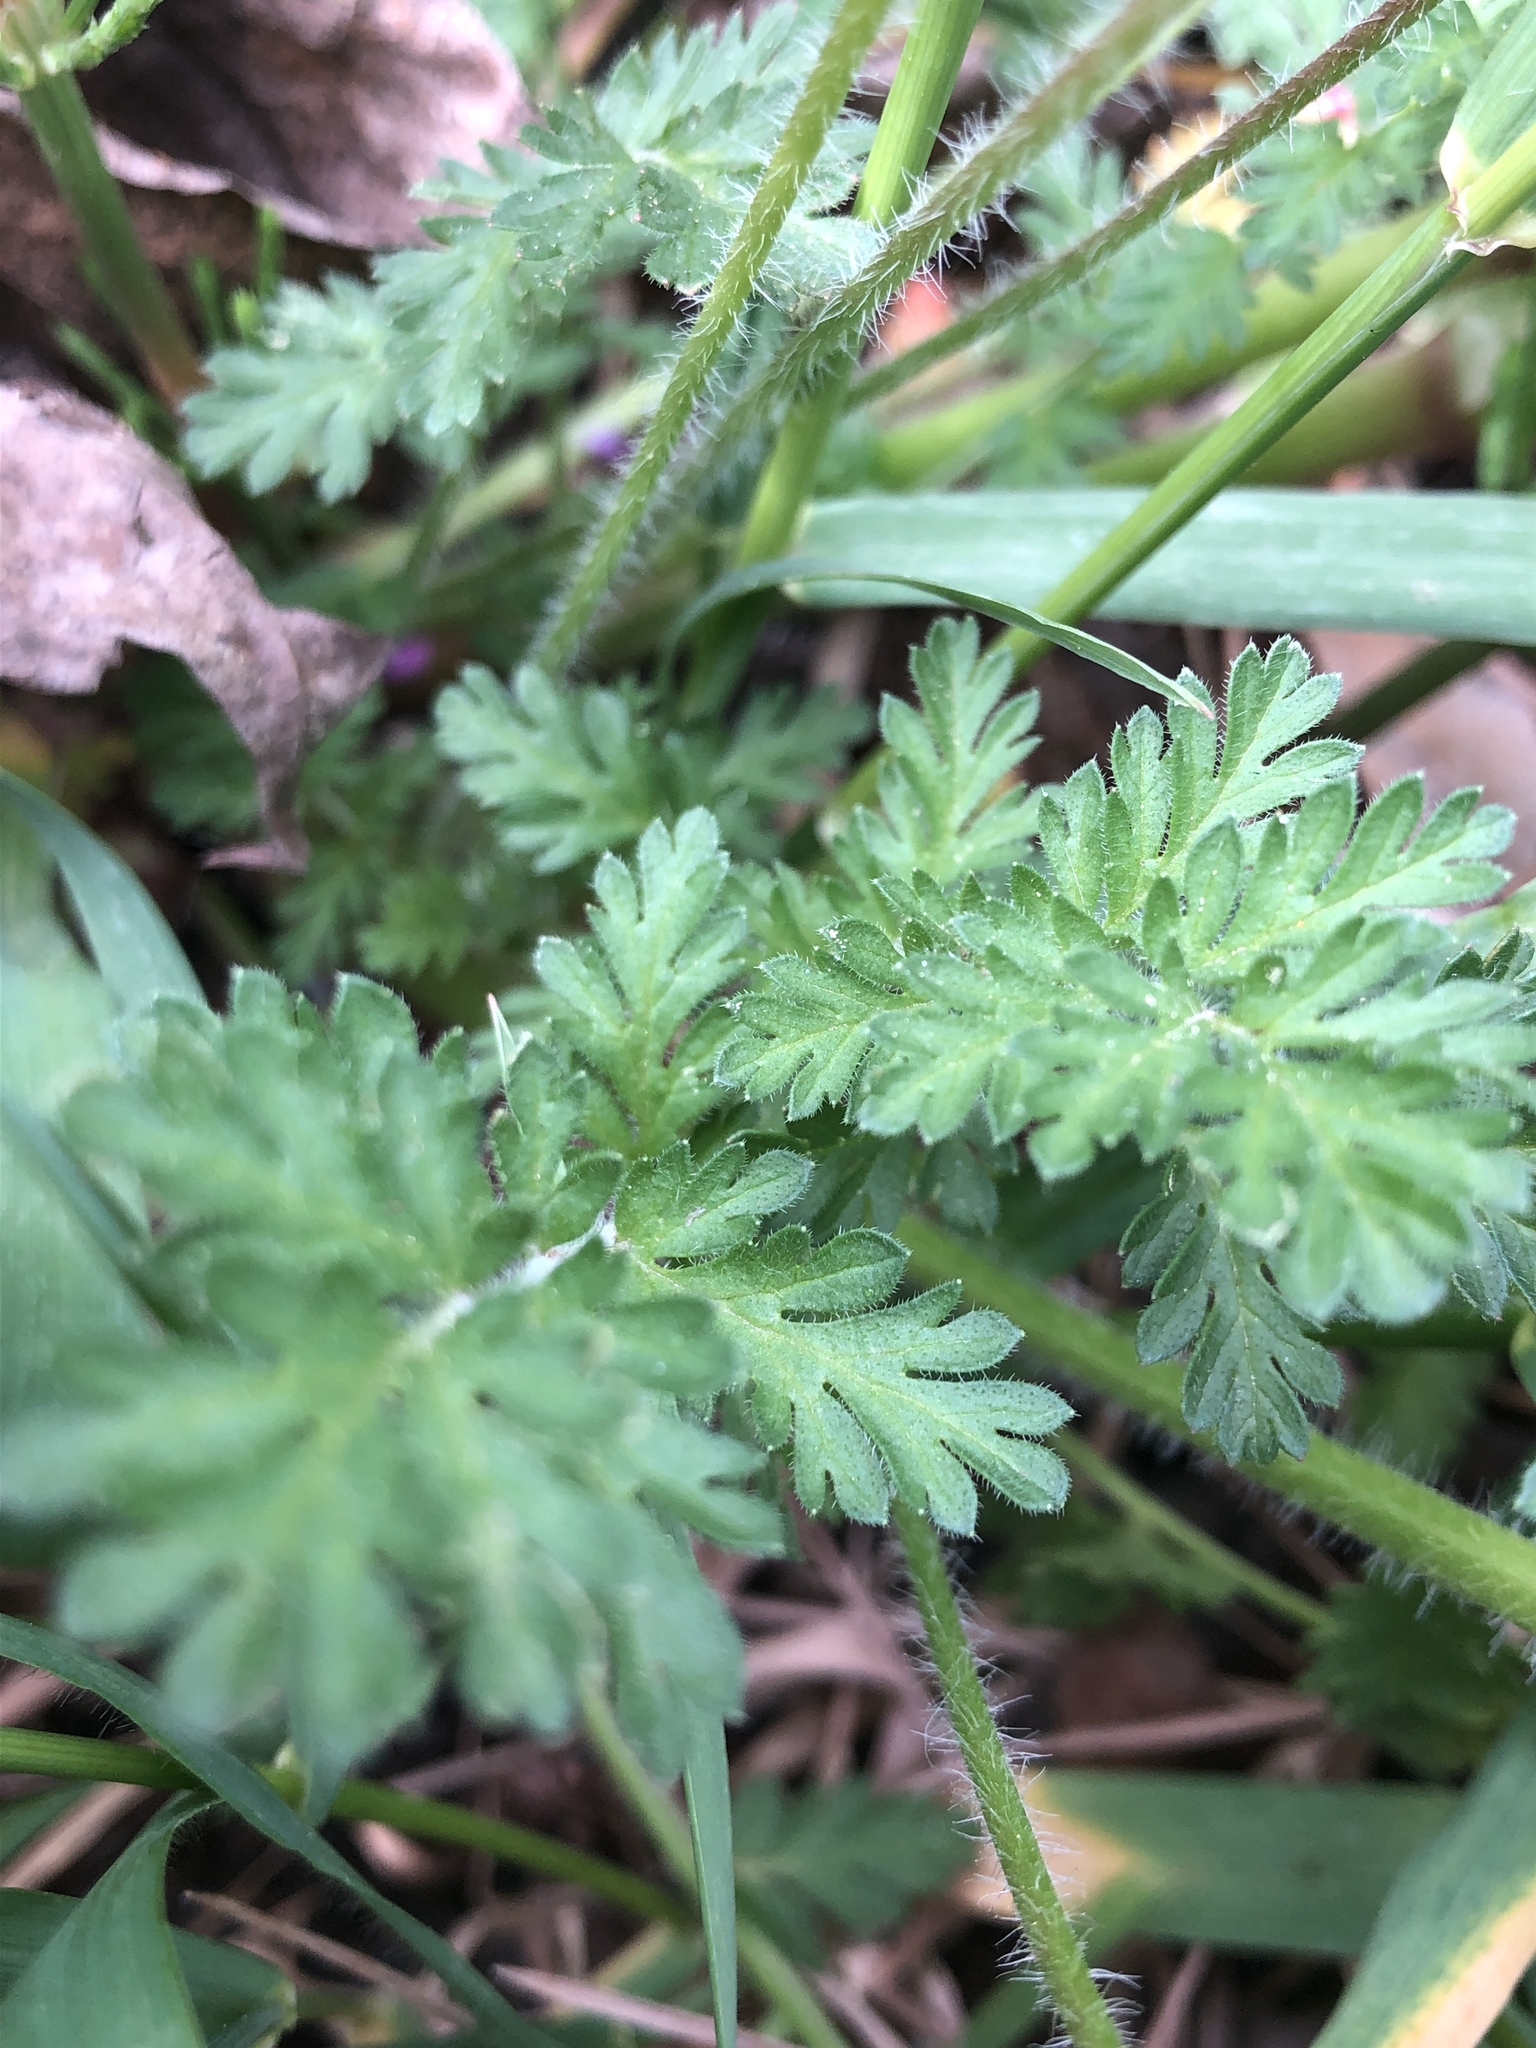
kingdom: Plantae
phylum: Tracheophyta
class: Magnoliopsida
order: Geraniales
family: Geraniaceae
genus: Erodium
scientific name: Erodium cicutarium
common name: Common stork's-bill
